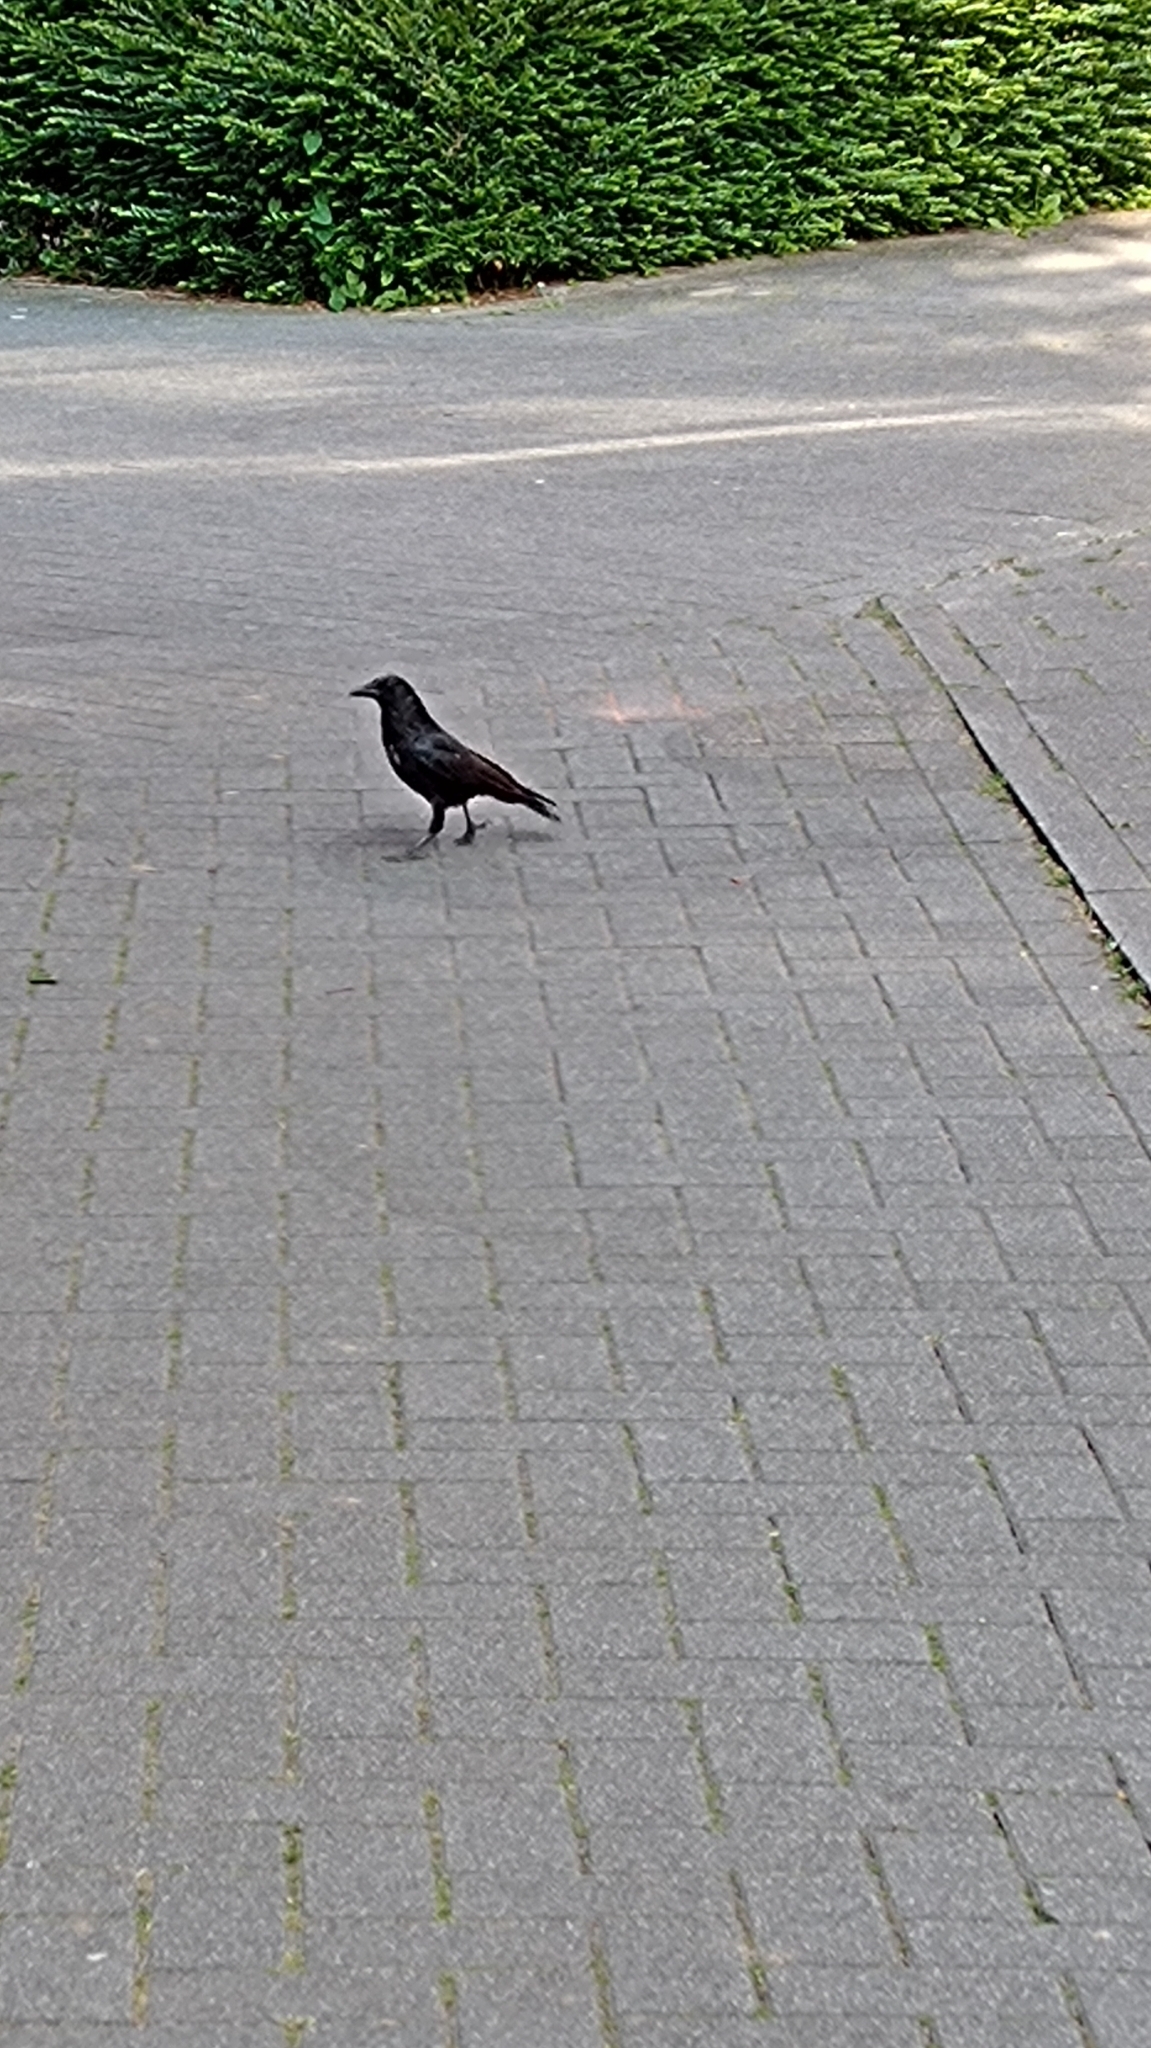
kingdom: Animalia
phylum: Chordata
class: Aves
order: Passeriformes
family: Corvidae
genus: Corvus
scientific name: Corvus corone
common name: Carrion crow
